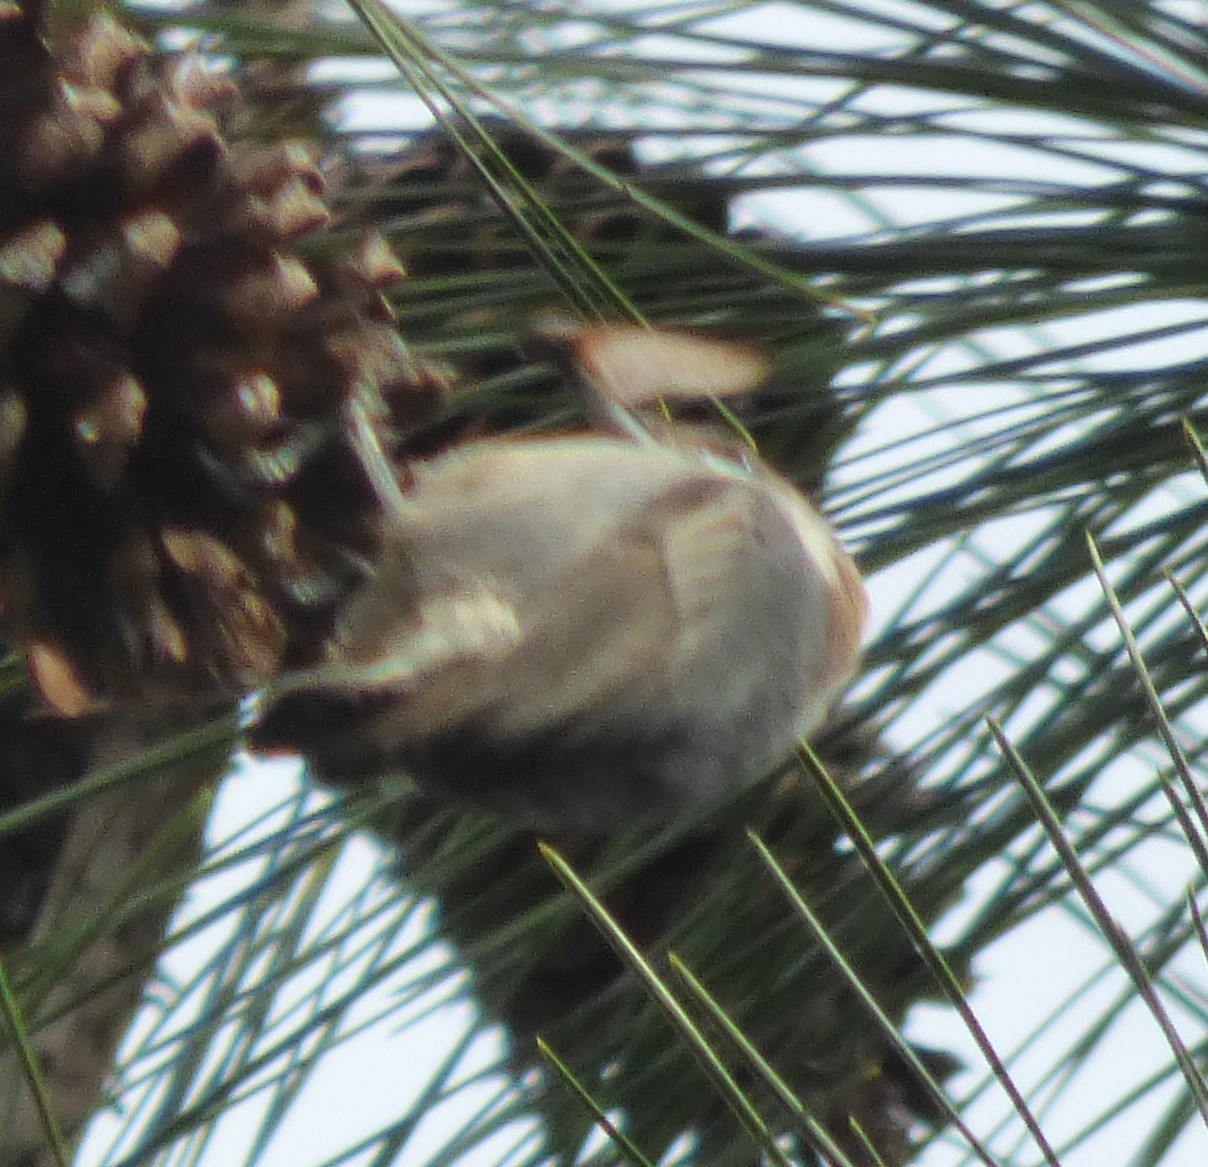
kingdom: Animalia
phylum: Chordata
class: Aves
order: Passeriformes
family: Sittidae
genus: Sitta
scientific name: Sitta pusilla
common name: Brown-headed nuthatch
